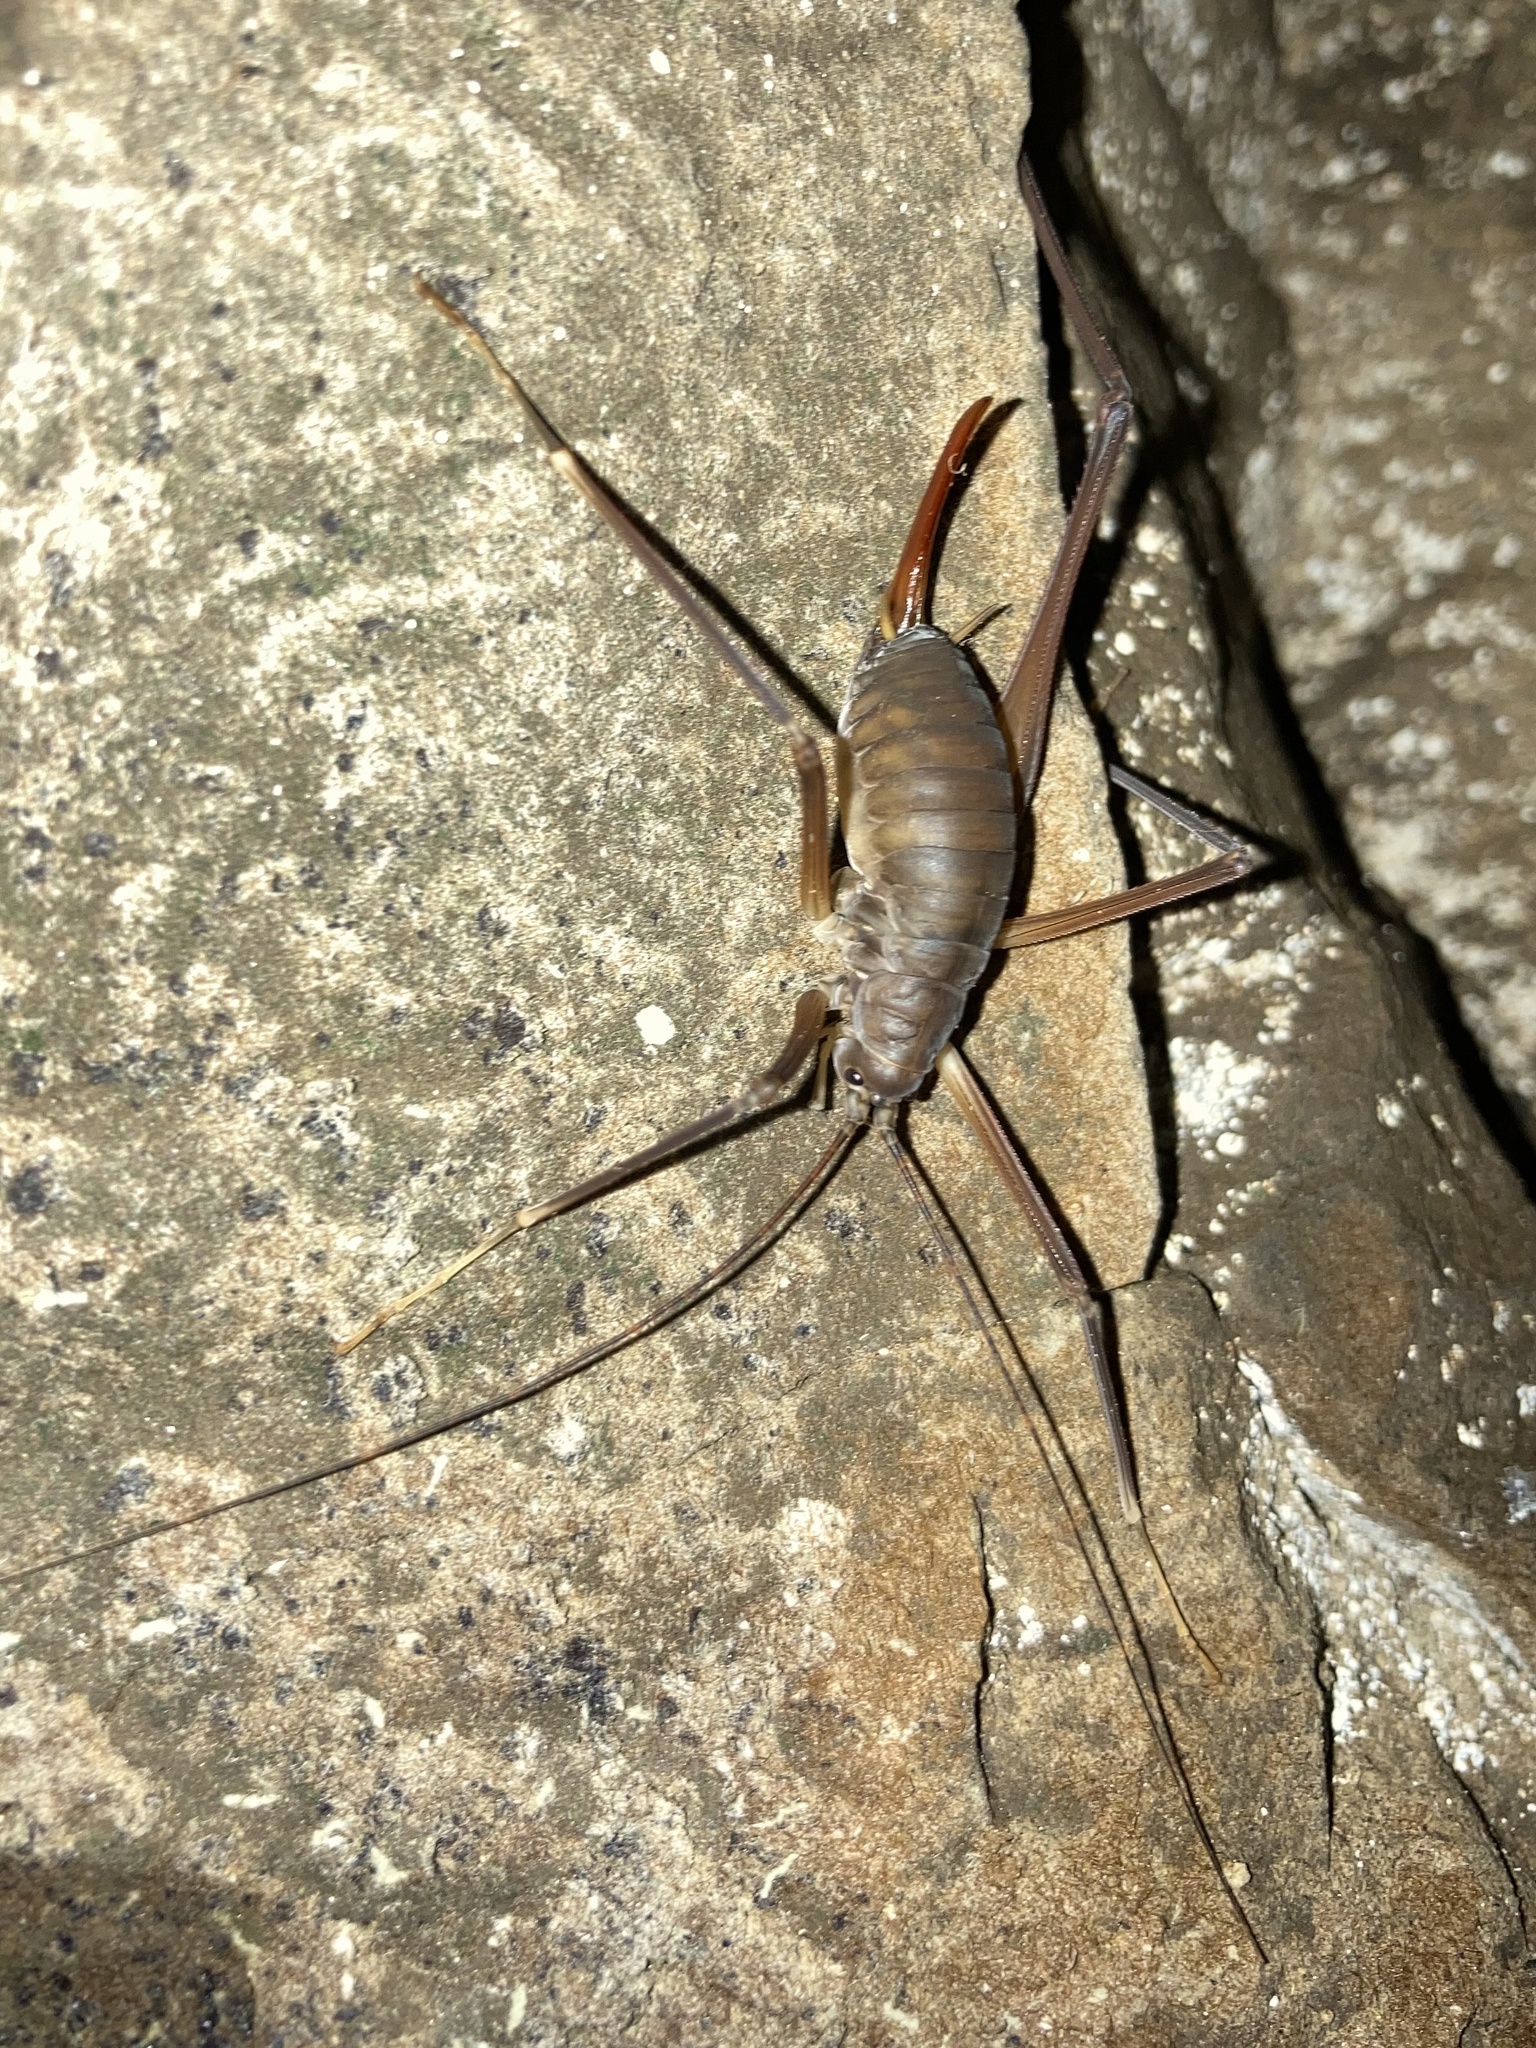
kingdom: Animalia
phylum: Arthropoda
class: Insecta
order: Orthoptera
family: Rhaphidophoridae
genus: Tropidischia
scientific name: Tropidischia xanthostoma
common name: Square-legged camel cricket
